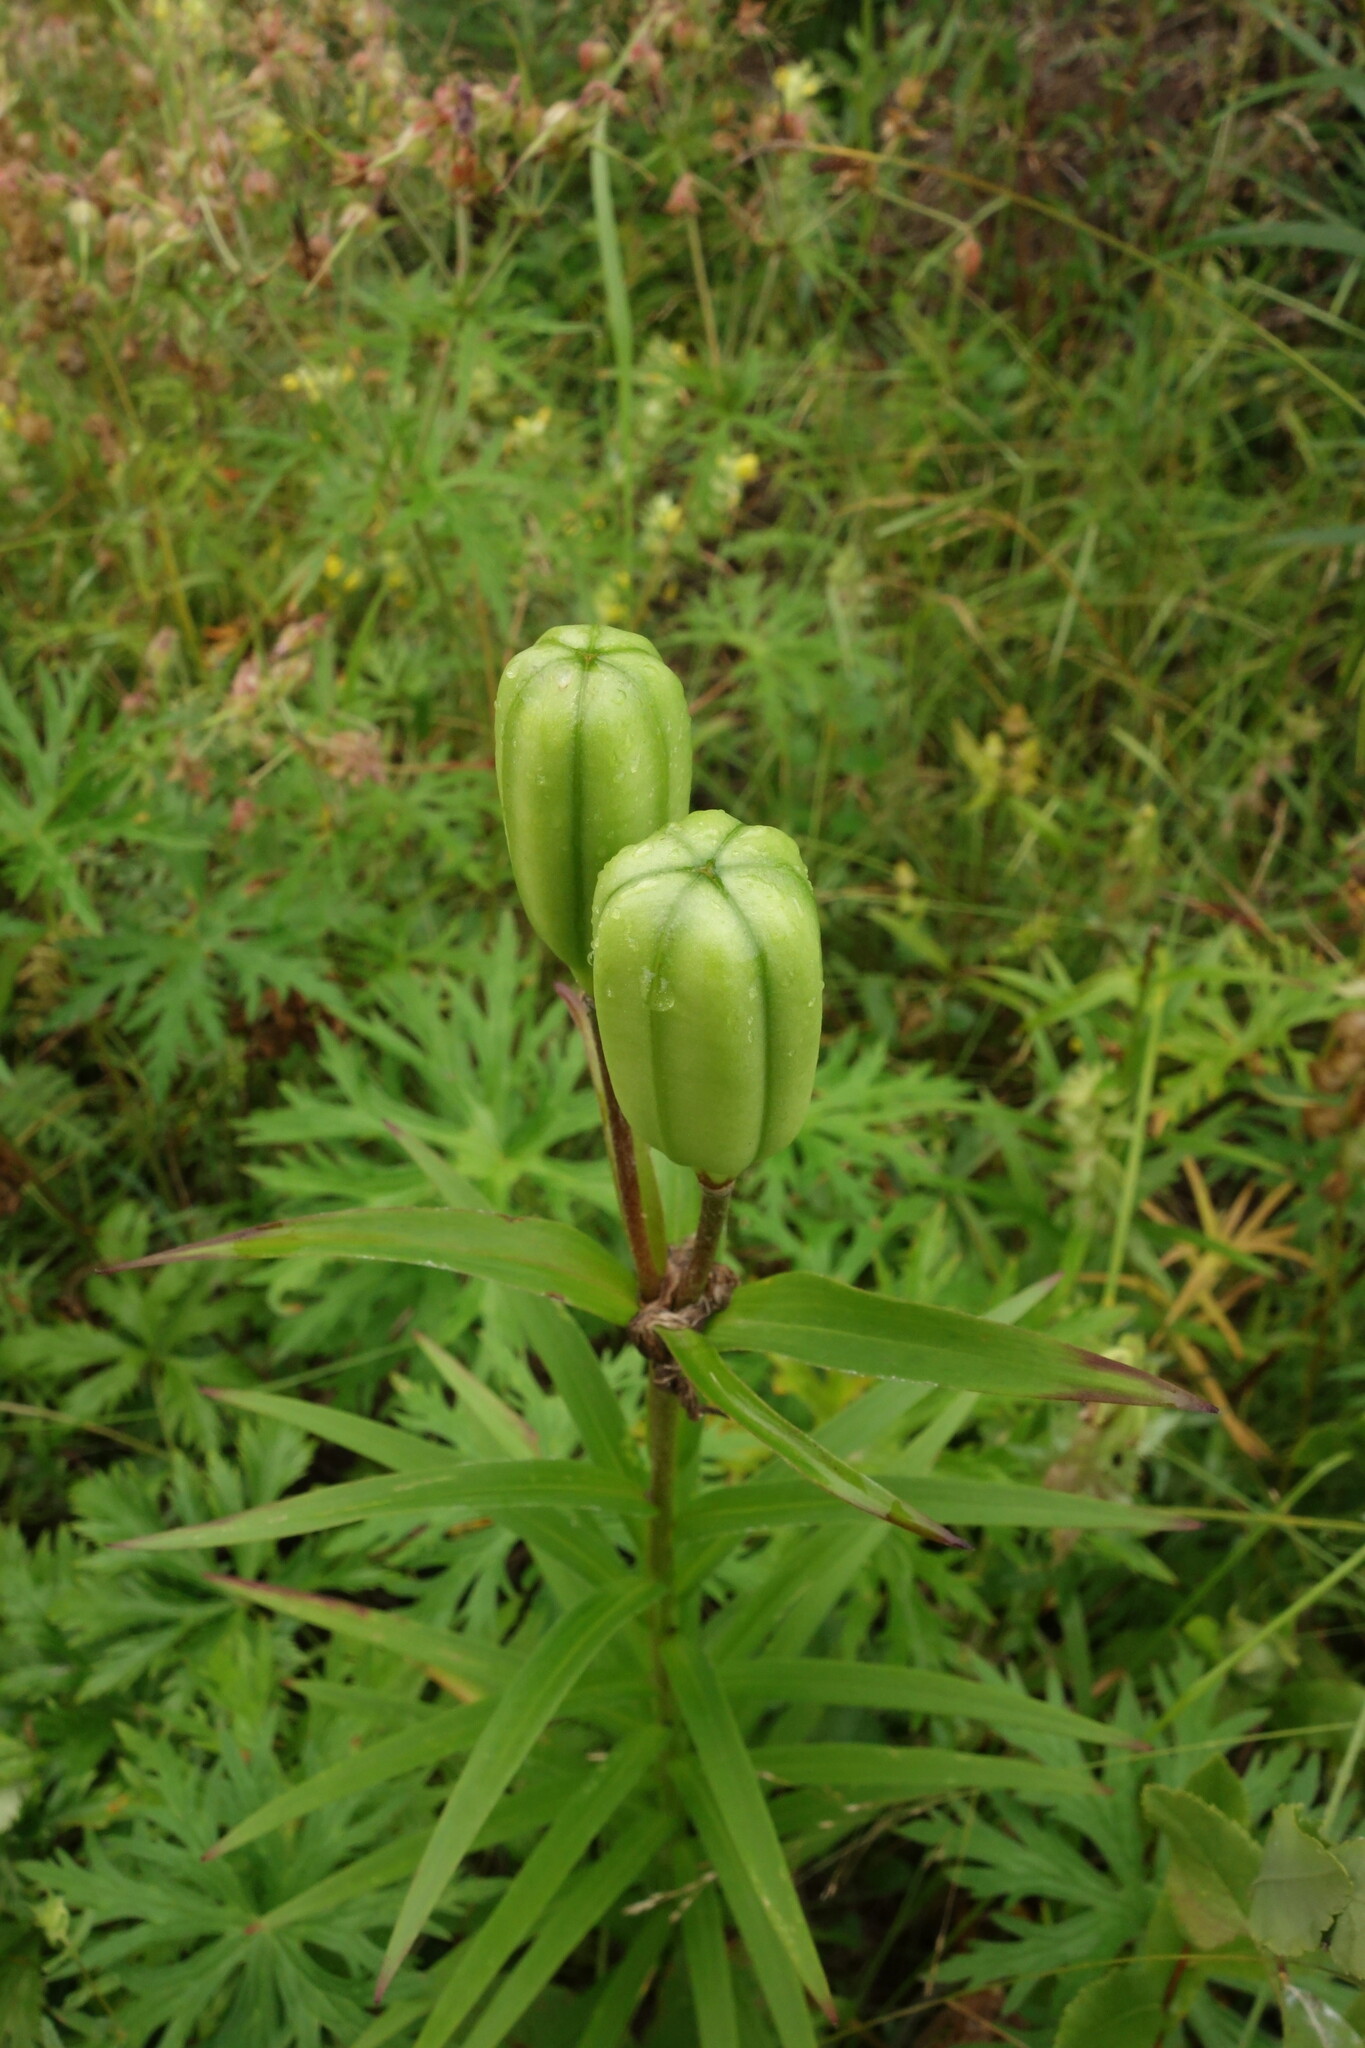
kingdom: Plantae
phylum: Tracheophyta
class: Liliopsida
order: Liliales
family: Liliaceae
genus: Lilium
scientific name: Lilium pensylvanicum
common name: Candlestick lily
